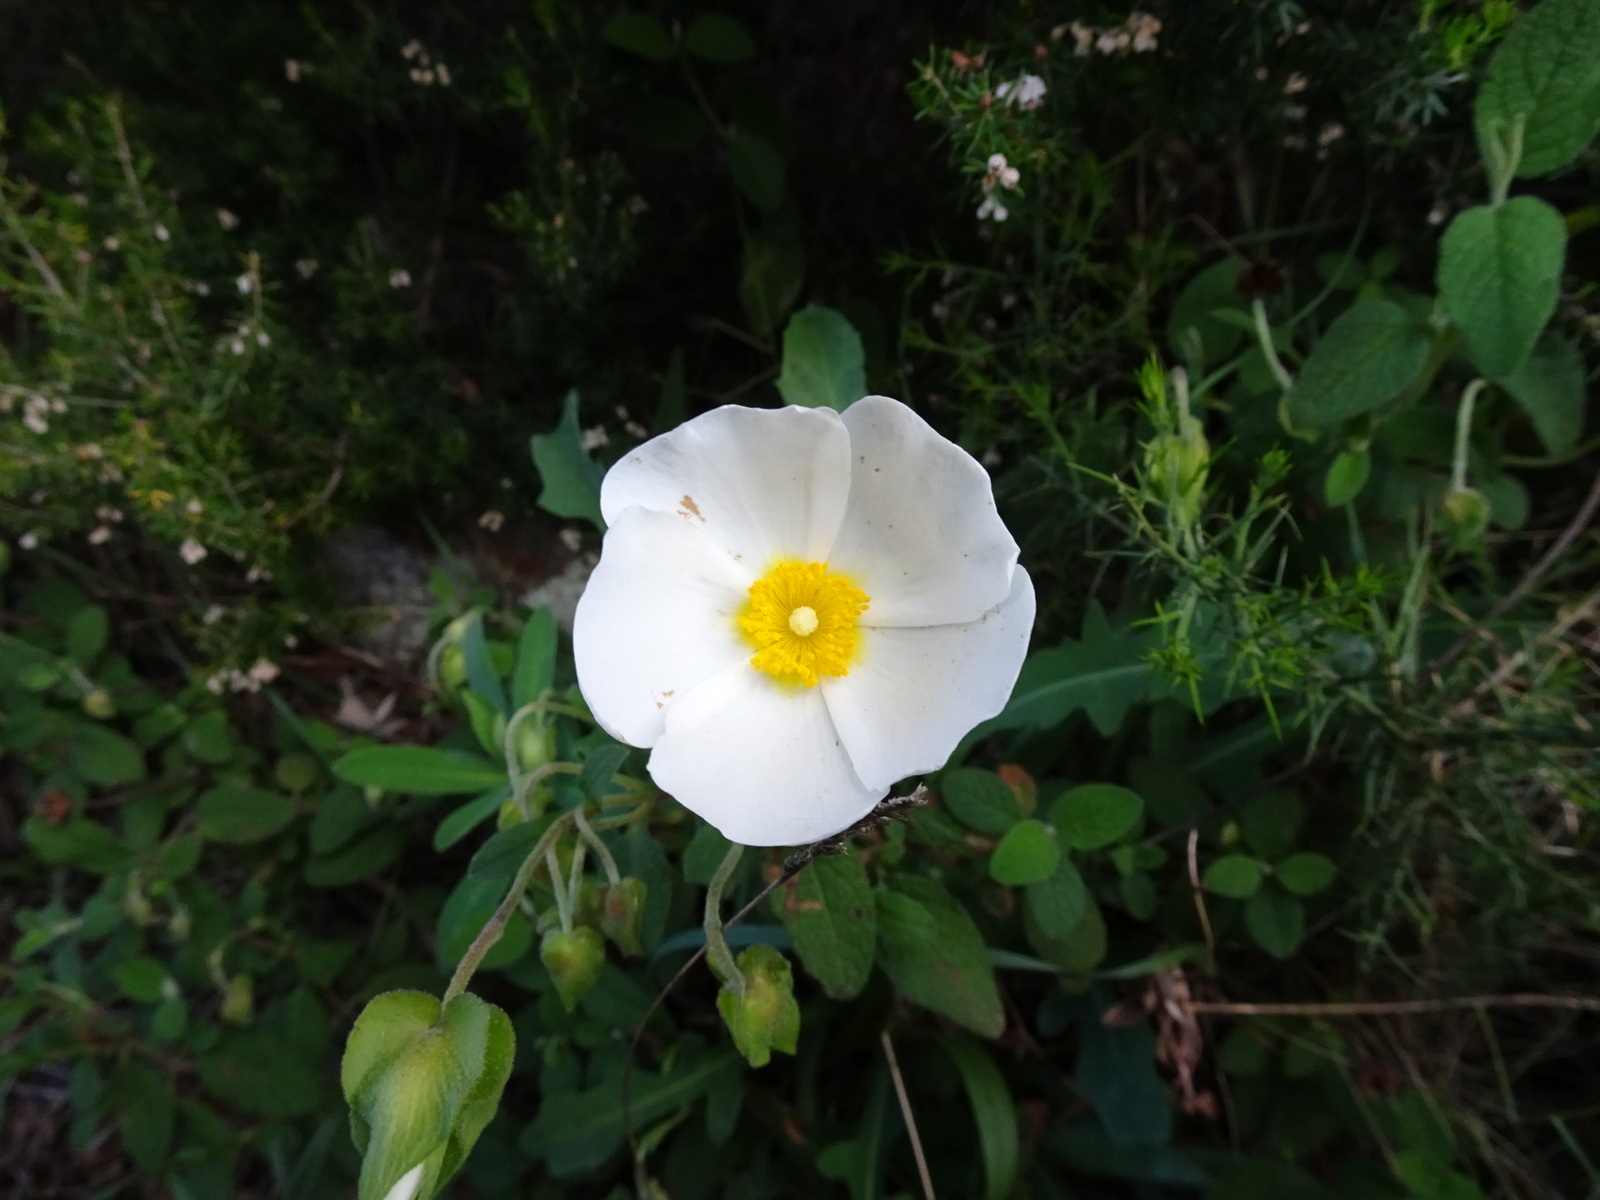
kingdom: Plantae
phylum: Tracheophyta
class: Magnoliopsida
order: Malvales
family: Cistaceae
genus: Cistus
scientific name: Cistus salviifolius
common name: Salvia cistus
